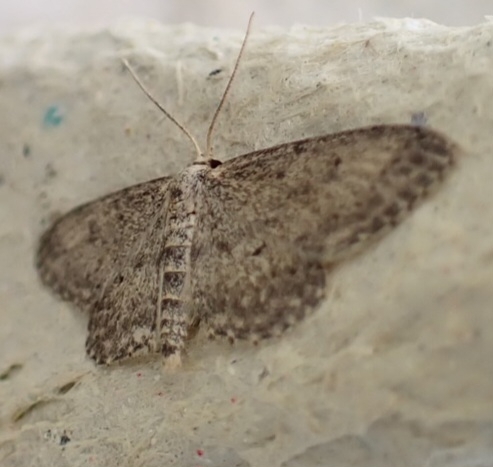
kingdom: Animalia
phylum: Arthropoda
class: Insecta
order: Lepidoptera
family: Geometridae
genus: Idaea
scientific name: Idaea seriata
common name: Small dusty wave
